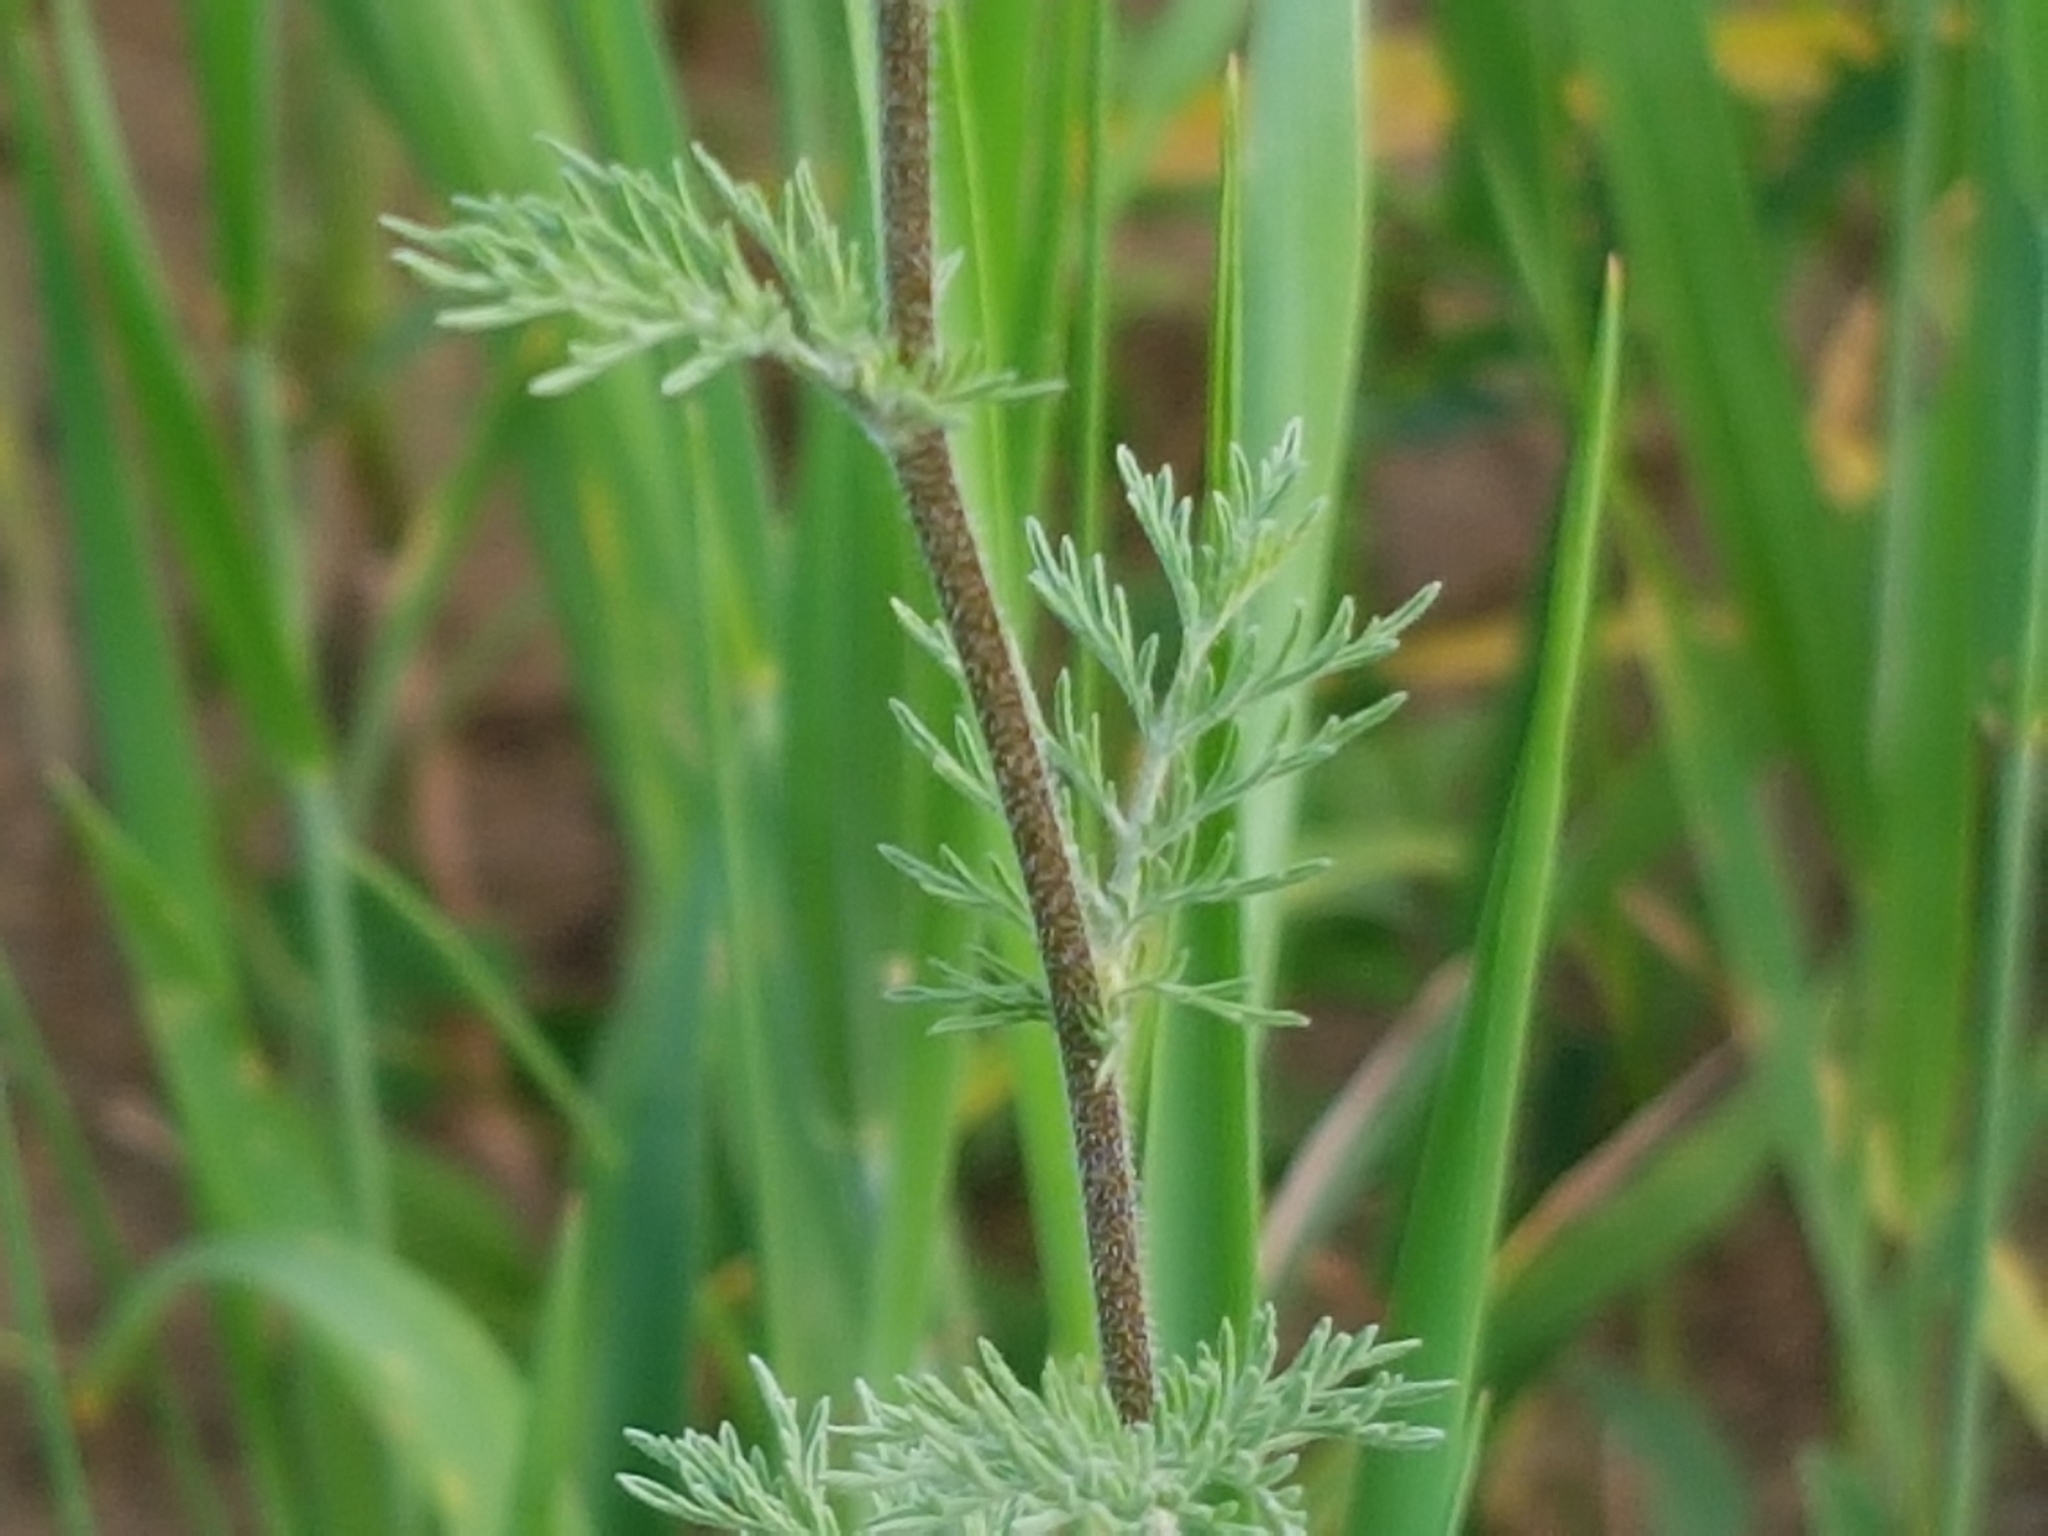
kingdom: Plantae
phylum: Tracheophyta
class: Magnoliopsida
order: Brassicales
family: Brassicaceae
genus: Descurainia
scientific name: Descurainia sophia
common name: Flixweed
